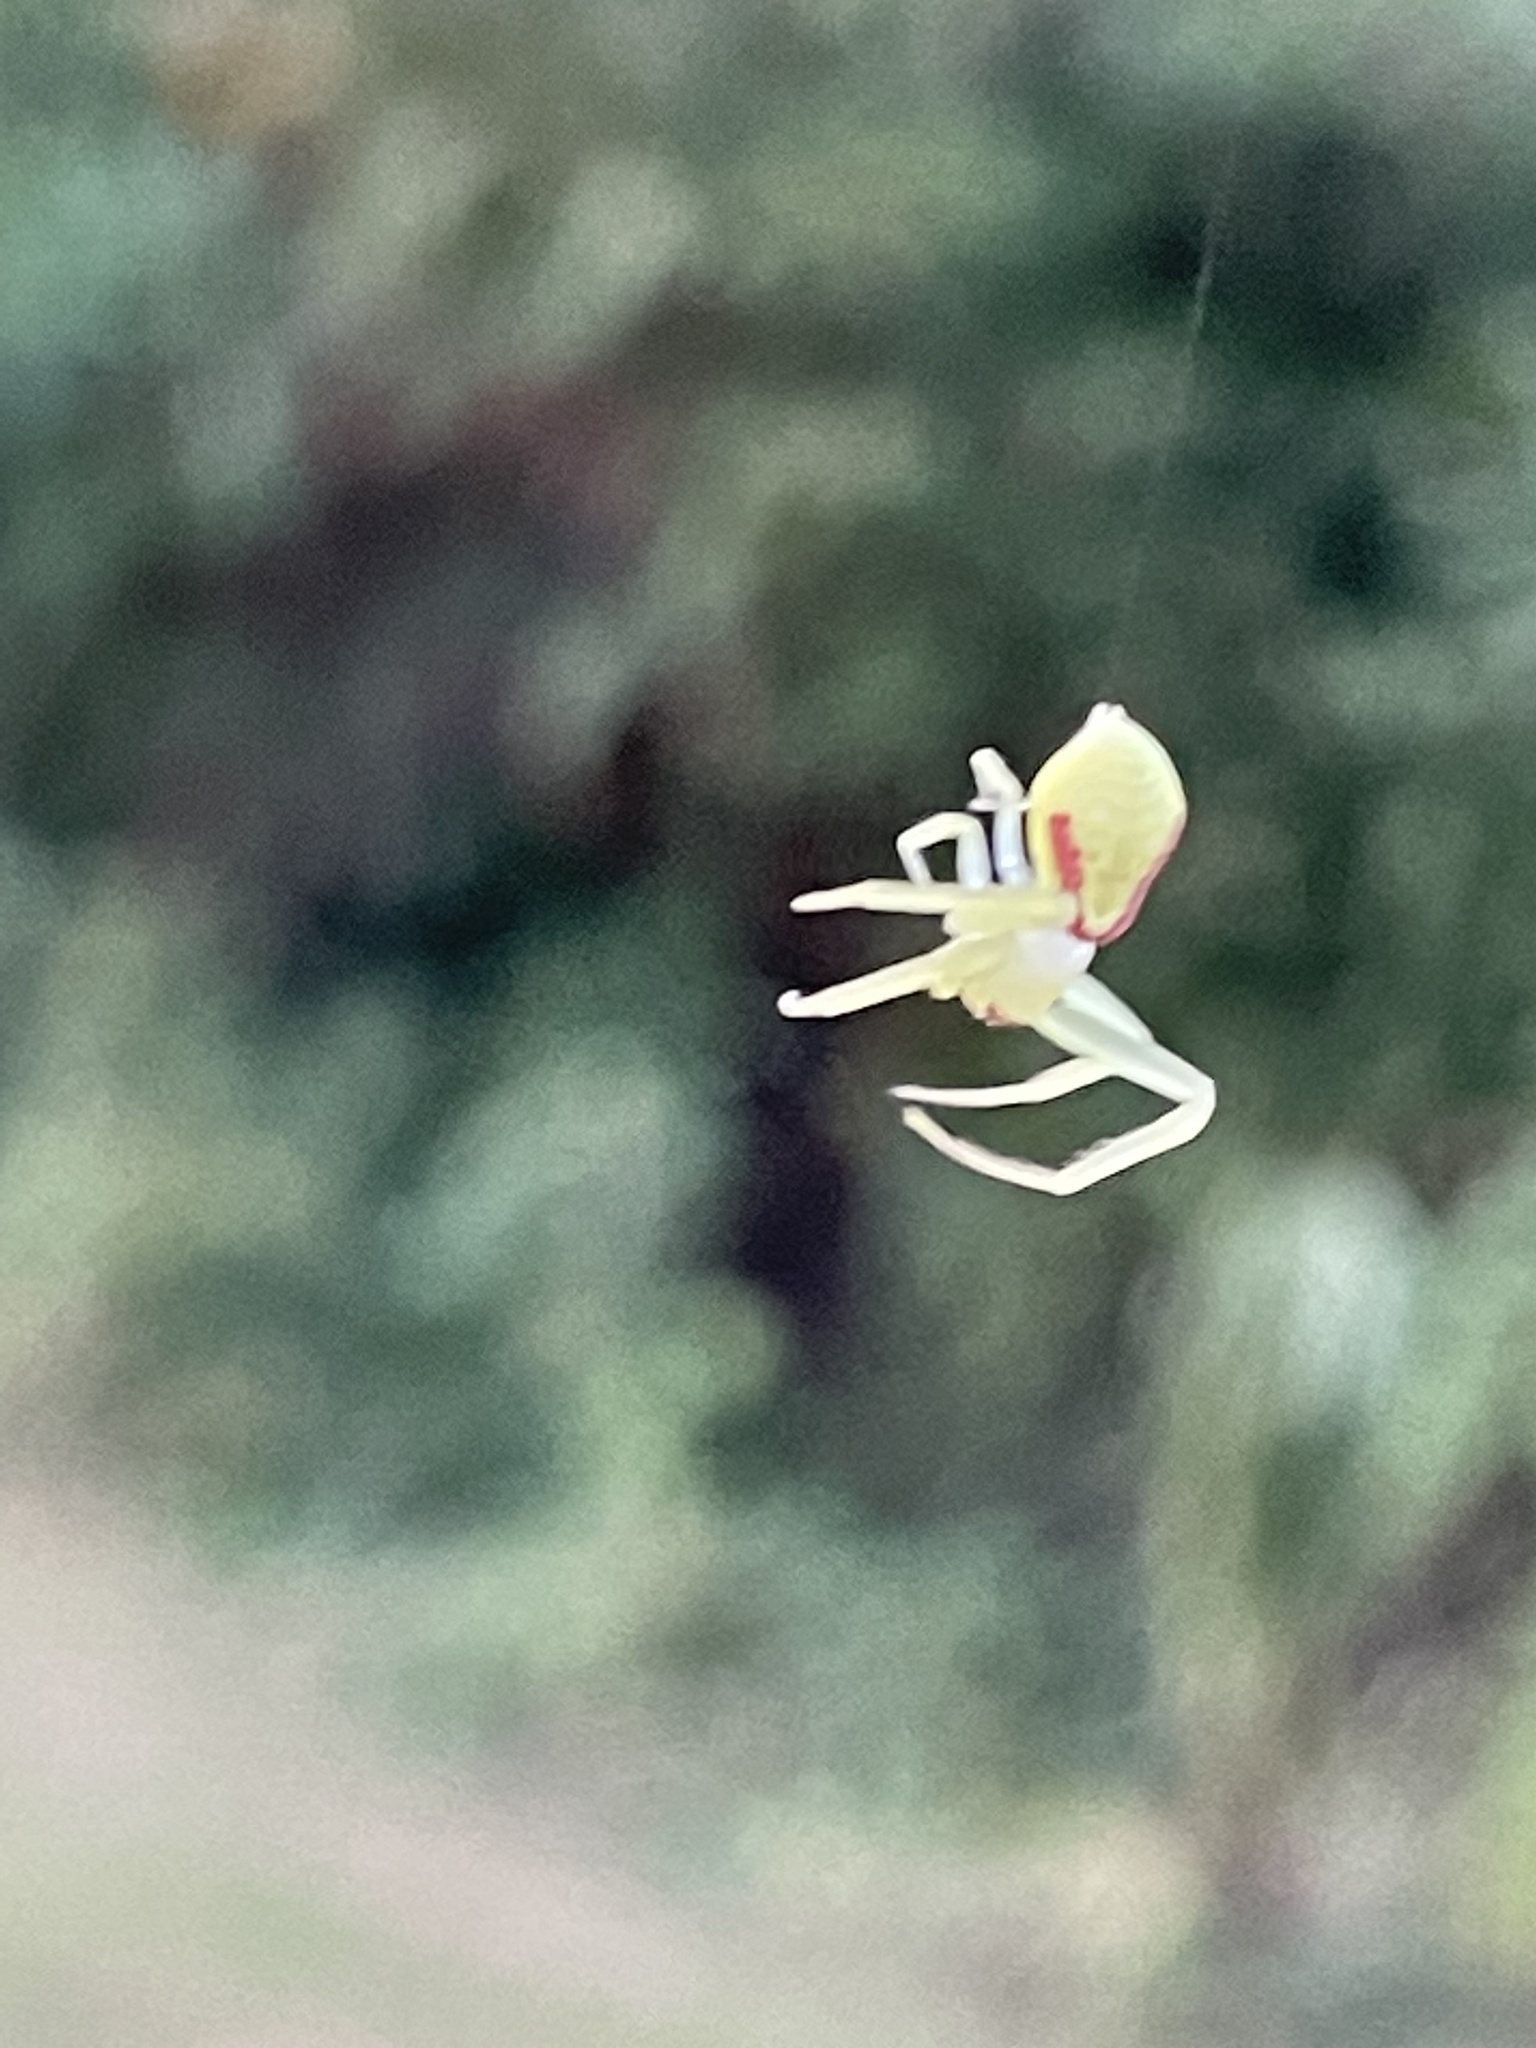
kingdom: Animalia
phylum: Arthropoda
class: Arachnida
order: Araneae
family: Thomisidae
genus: Misumessus
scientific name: Misumessus oblongus
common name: American green crab spider
